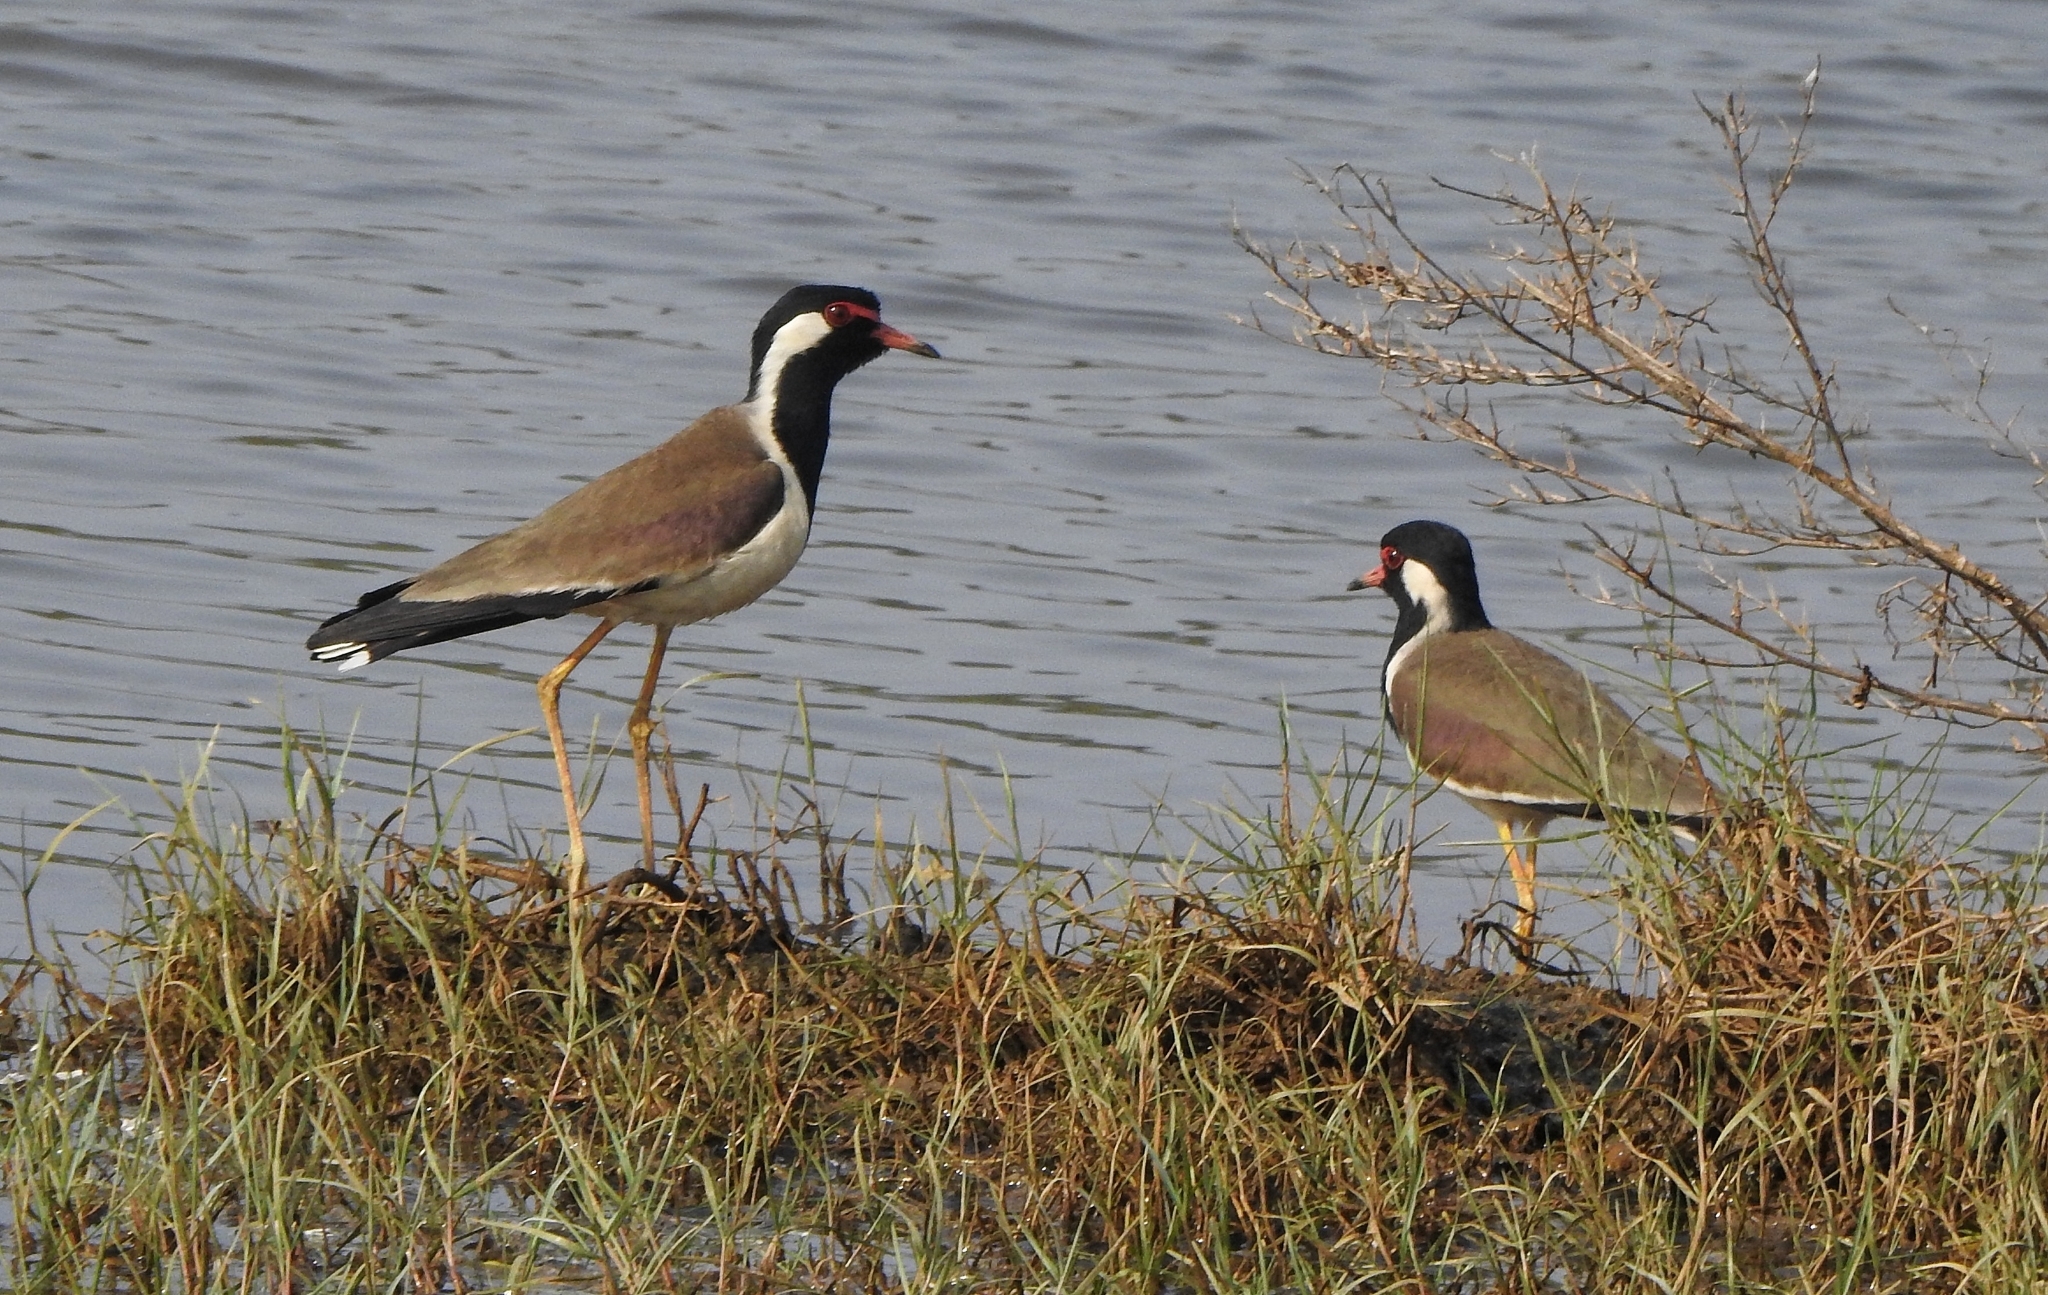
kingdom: Animalia
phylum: Chordata
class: Aves
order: Charadriiformes
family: Charadriidae
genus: Vanellus
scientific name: Vanellus indicus
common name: Red-wattled lapwing
